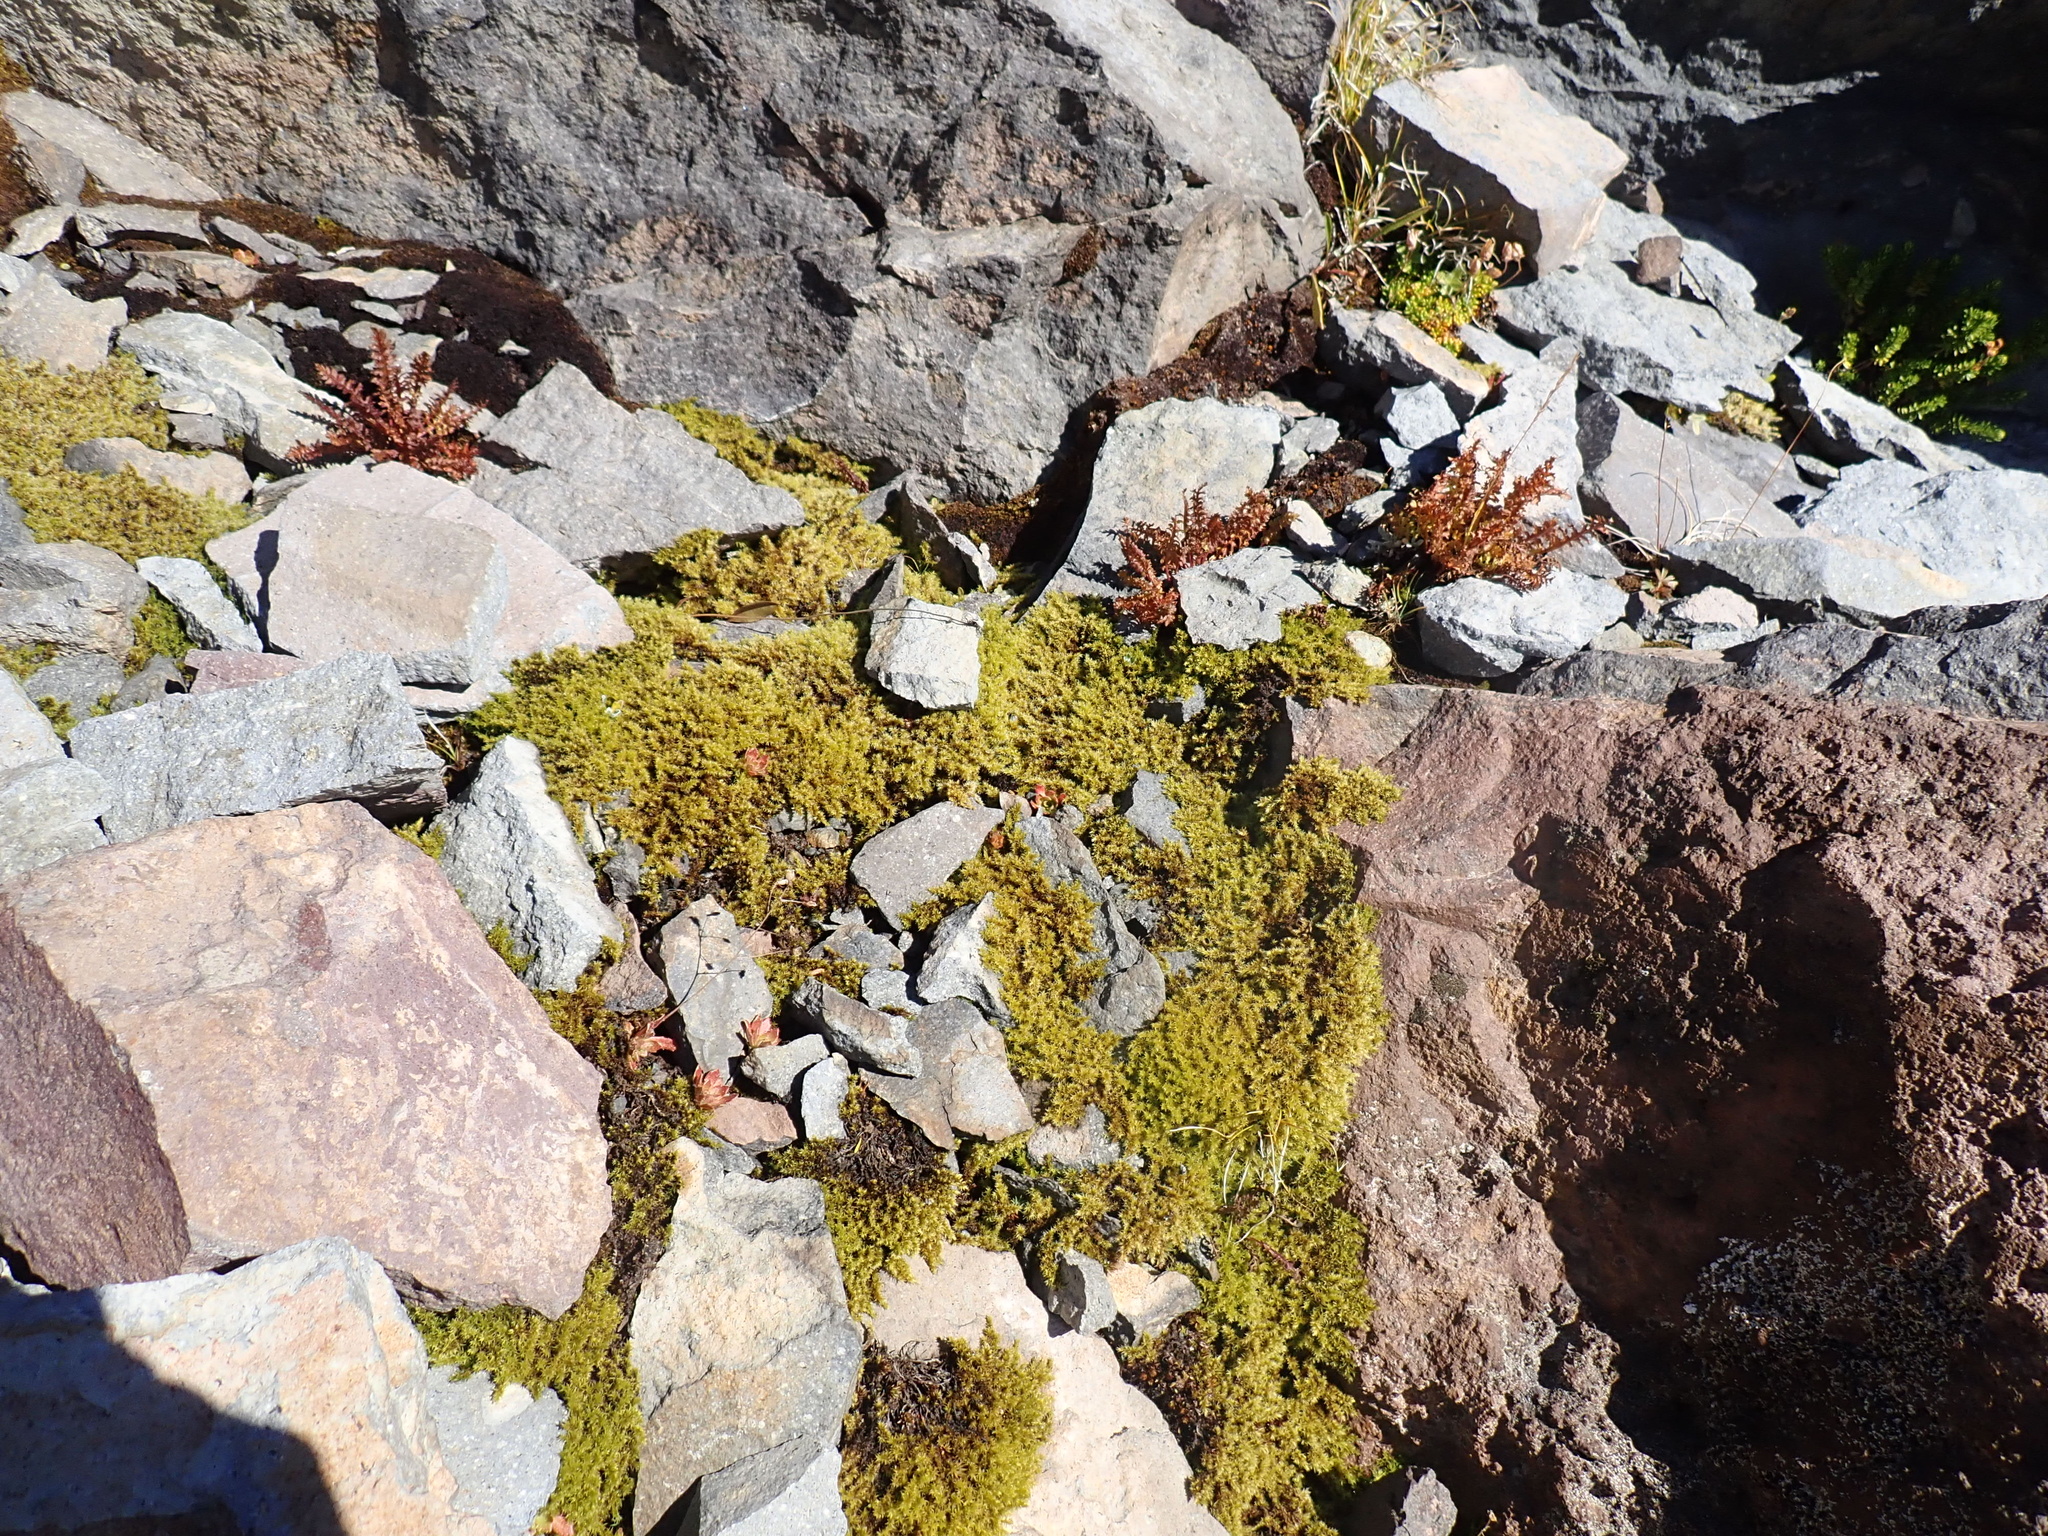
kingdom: Plantae
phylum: Tracheophyta
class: Magnoliopsida
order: Lamiales
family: Orobanchaceae
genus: Pedicularis
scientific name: Pedicularis ornithorhynchos
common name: Bird's-beak lousewort
